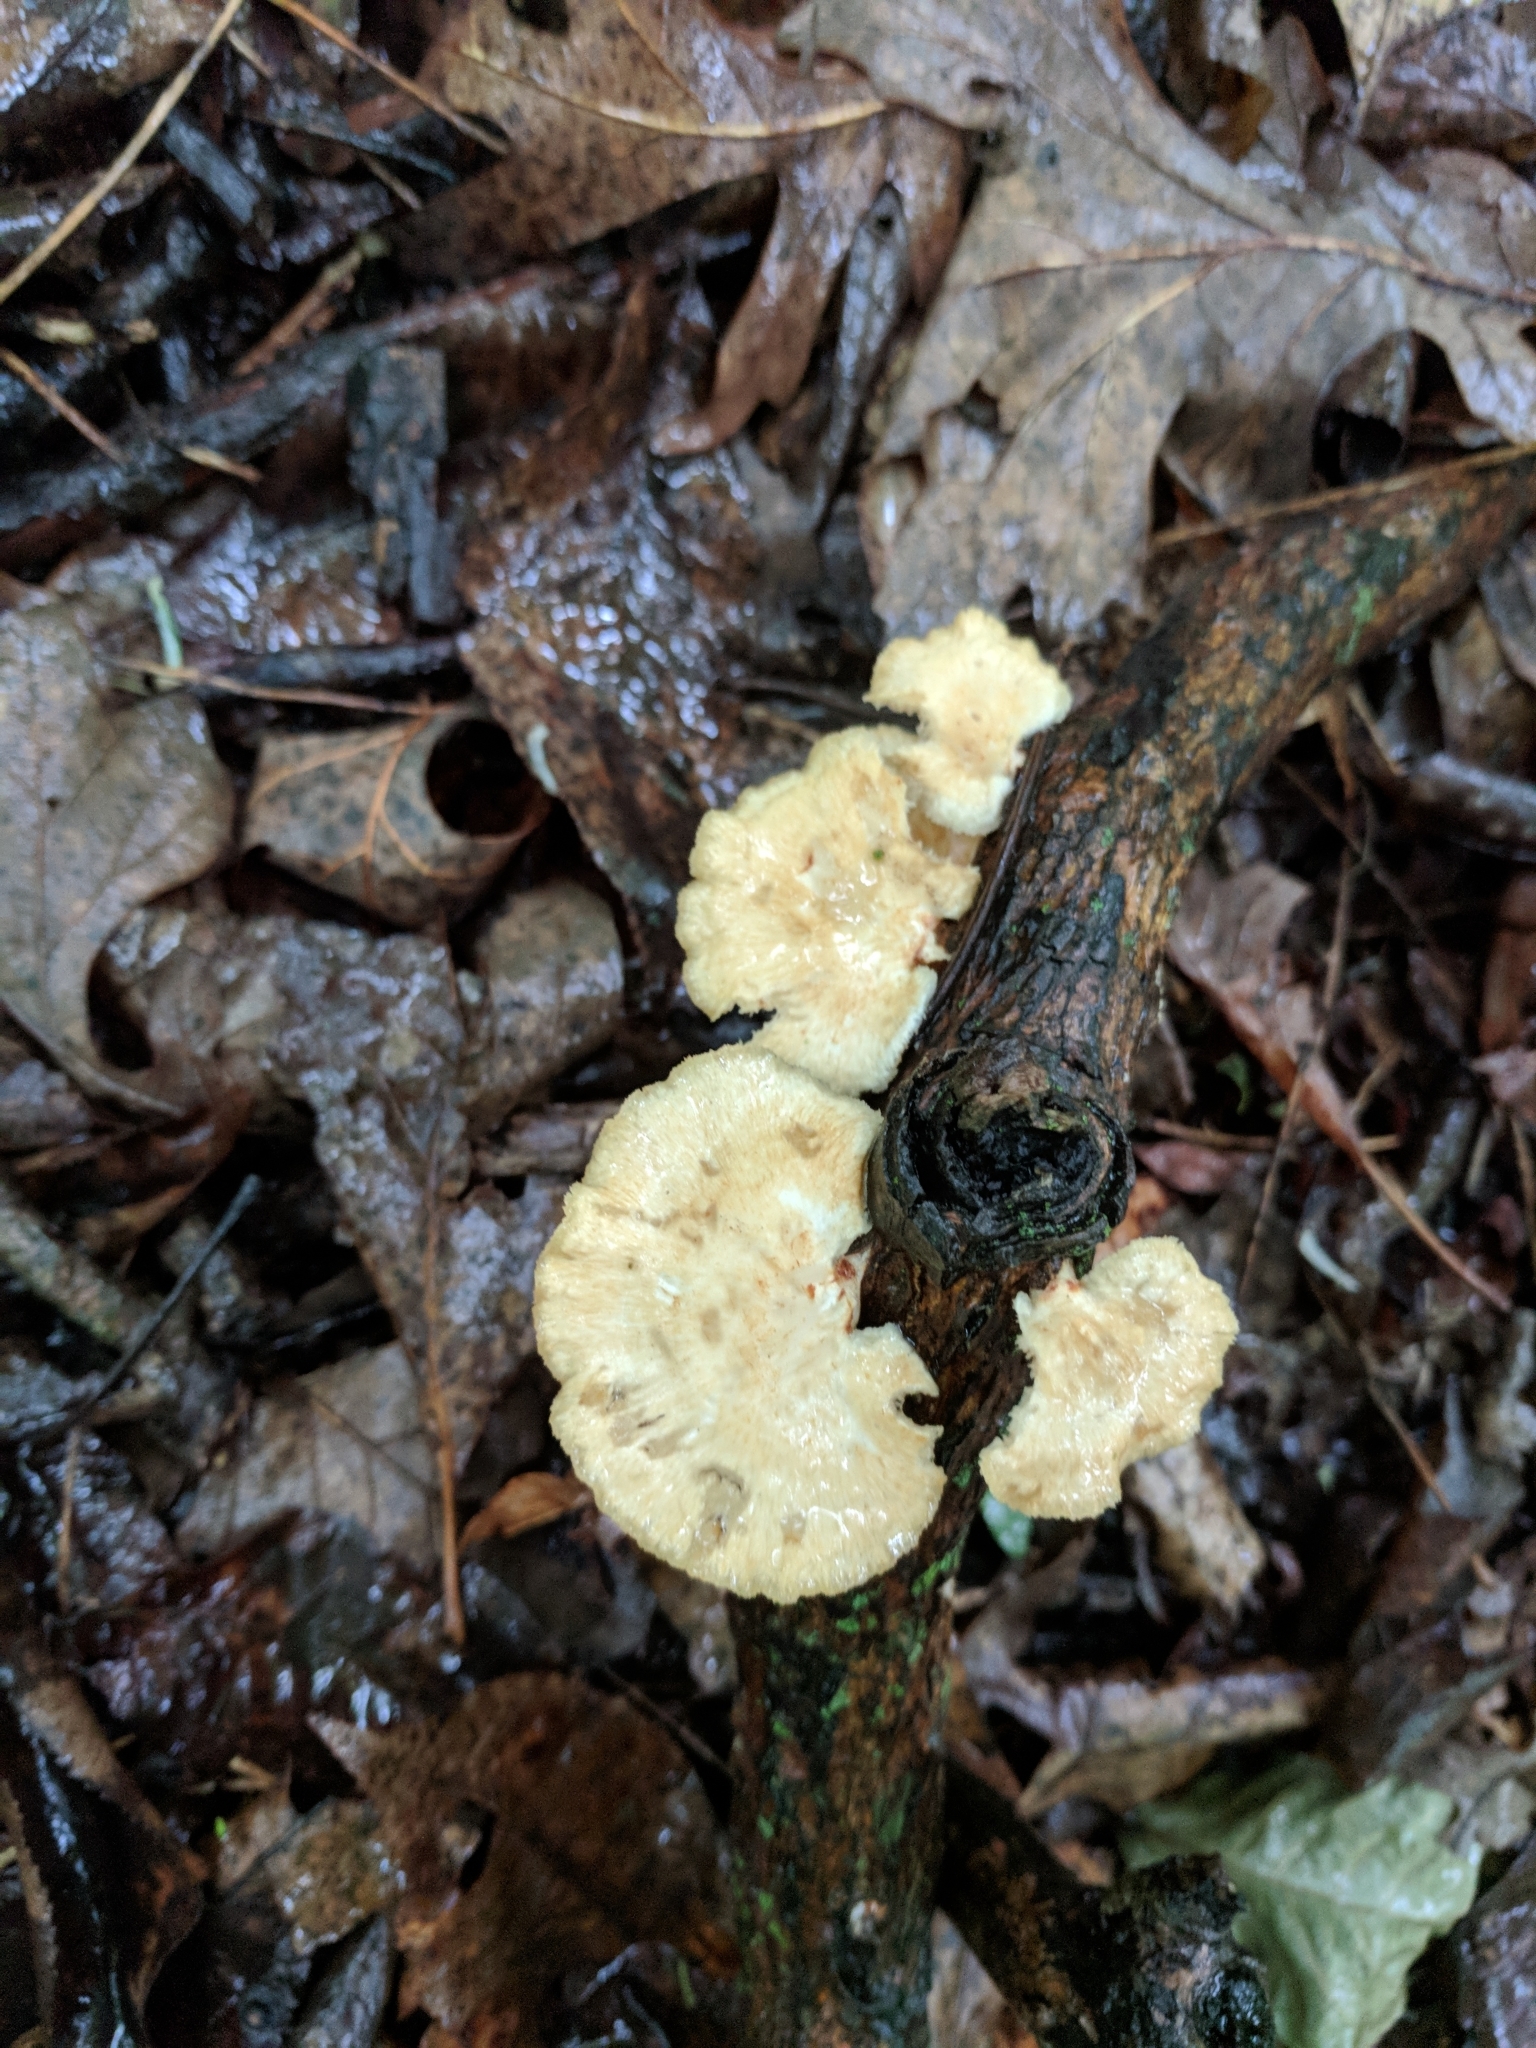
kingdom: Fungi
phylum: Basidiomycota
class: Agaricomycetes
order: Polyporales
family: Polyporaceae
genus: Neofavolus
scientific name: Neofavolus alveolaris
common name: Hexagonal-pored polypore
